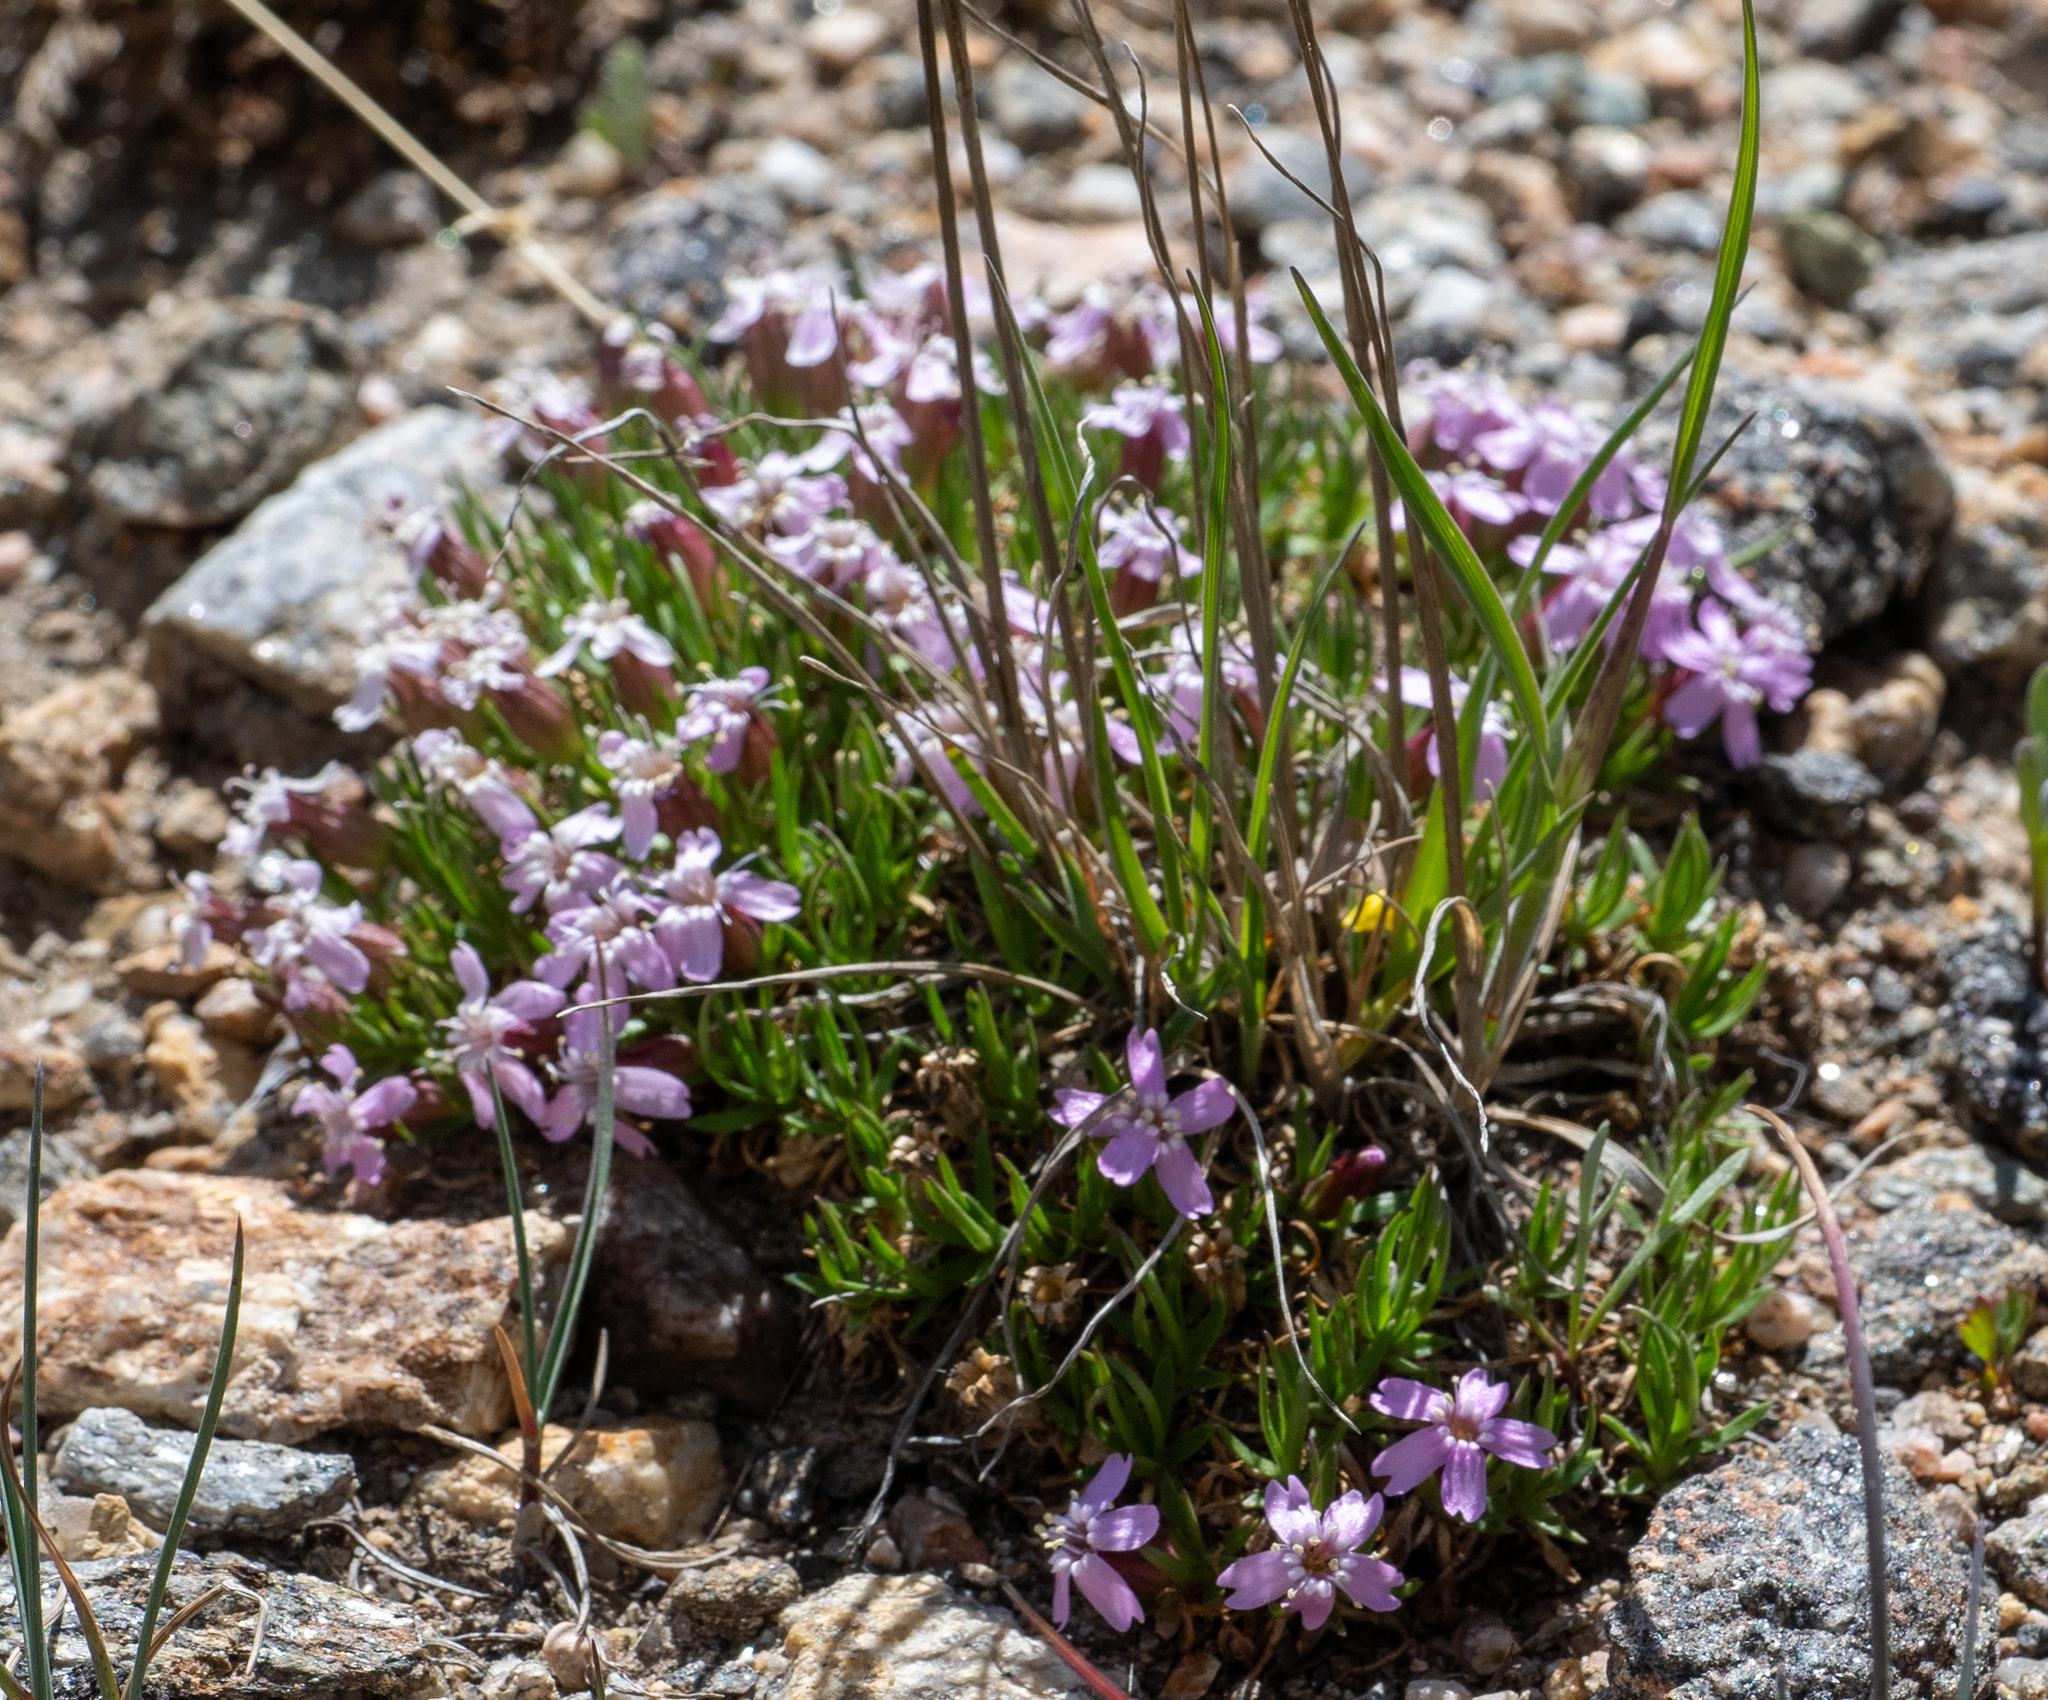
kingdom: Plantae
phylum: Tracheophyta
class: Magnoliopsida
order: Caryophyllales
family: Caryophyllaceae
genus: Silene
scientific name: Silene acaulis
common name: Moss campion
